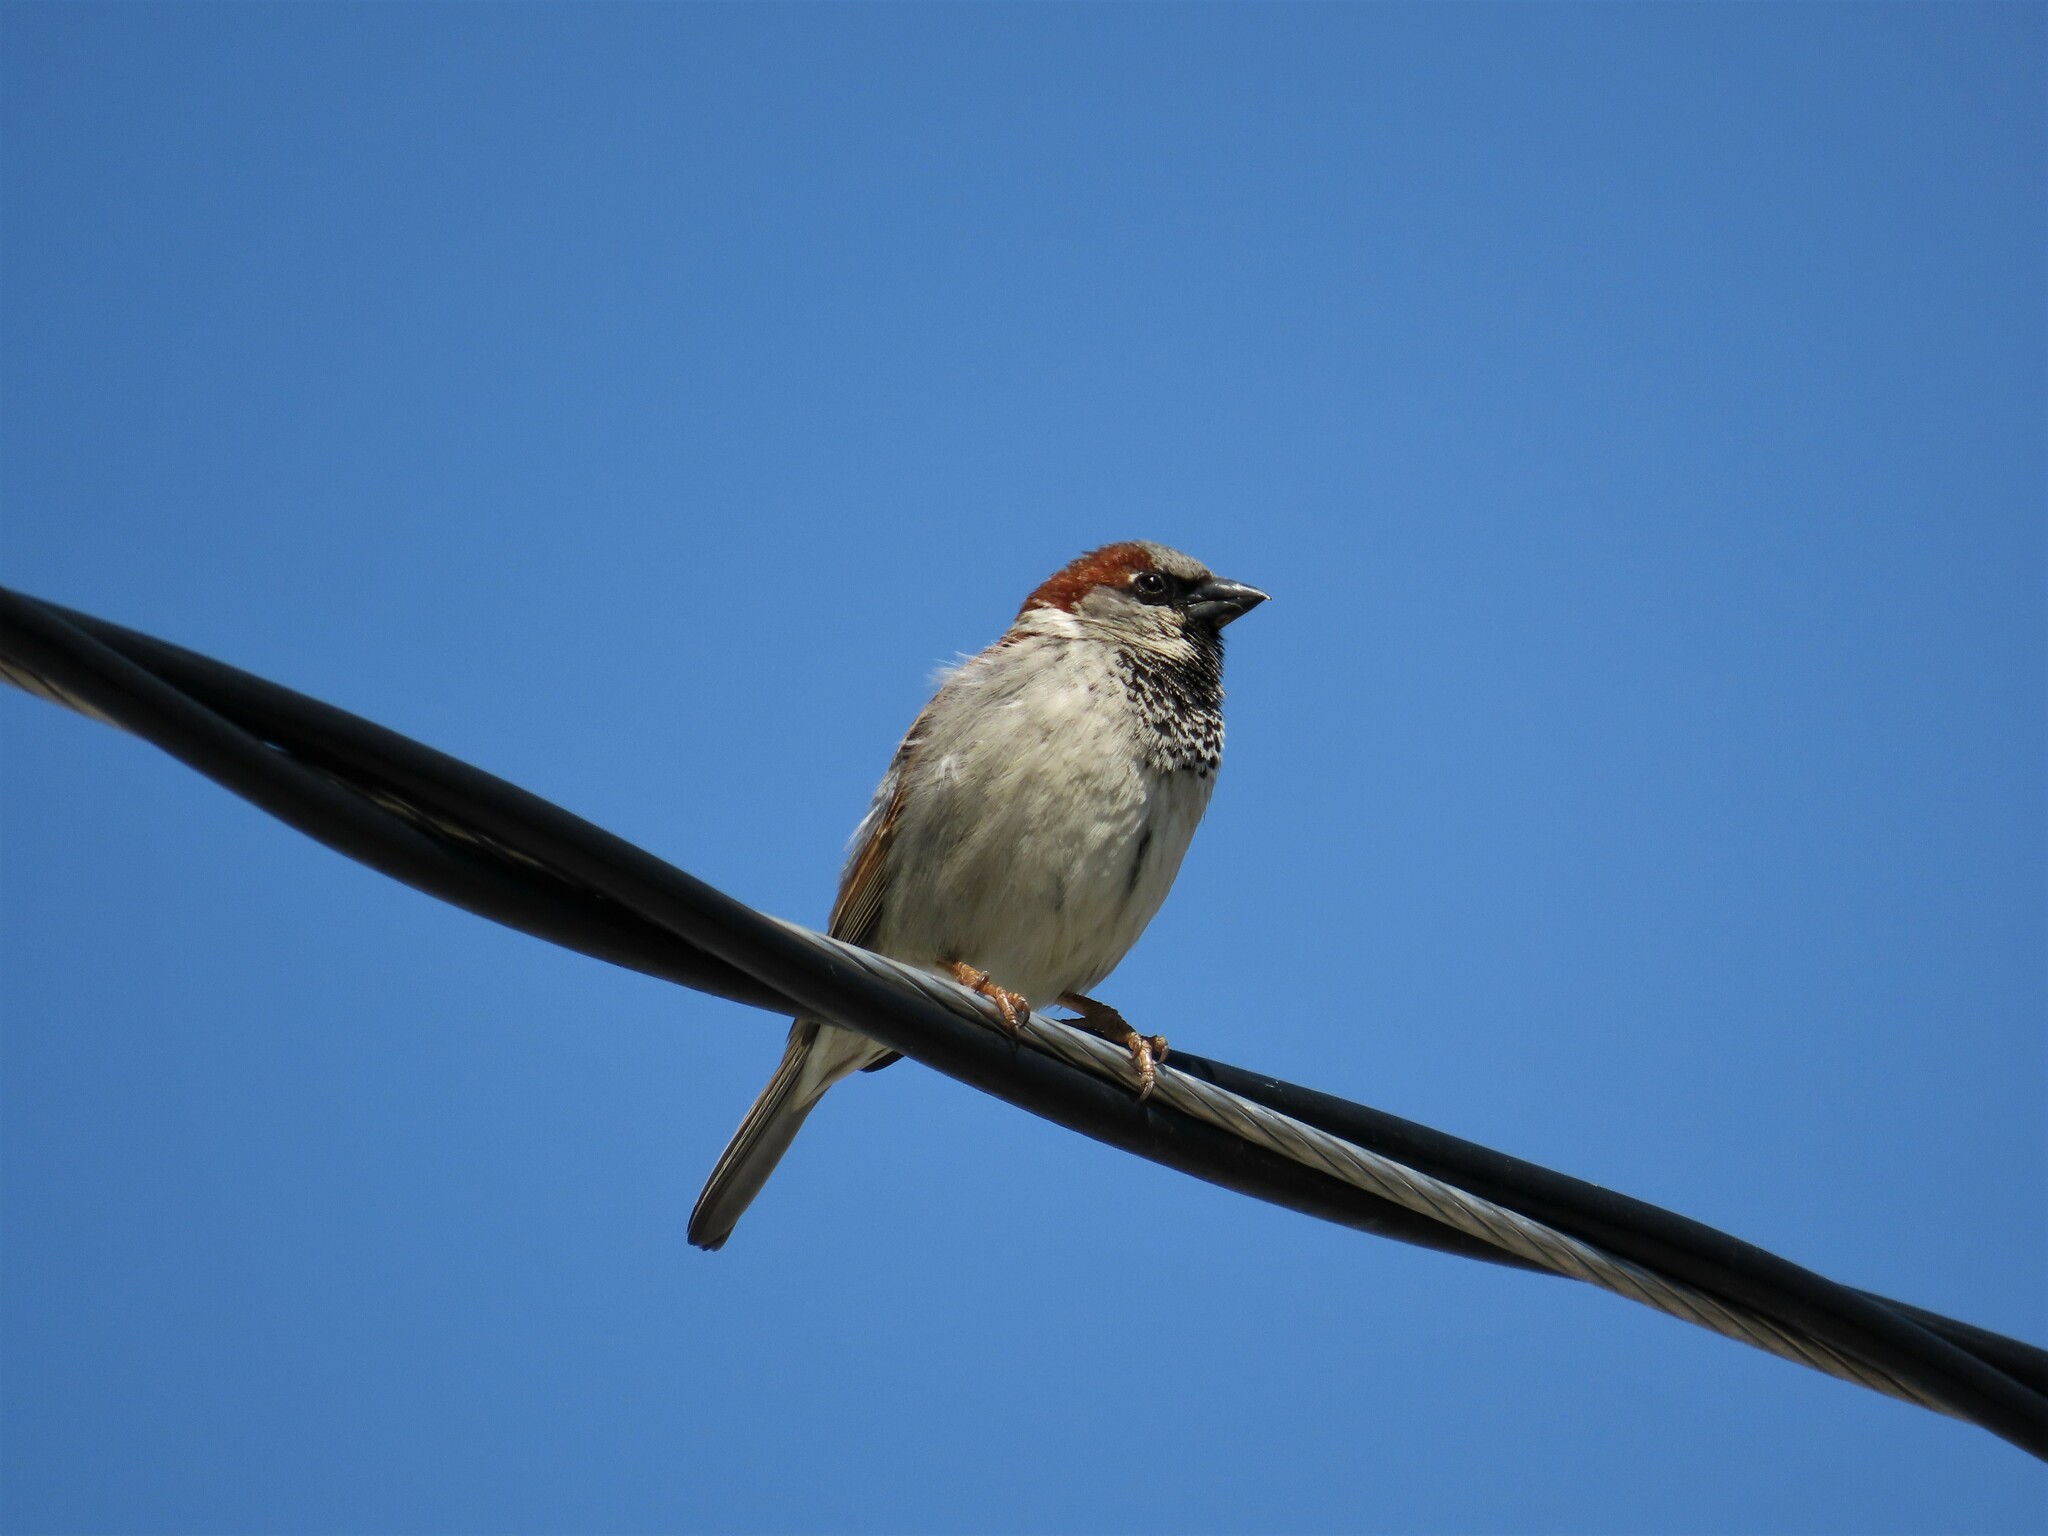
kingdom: Animalia
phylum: Chordata
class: Aves
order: Passeriformes
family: Passeridae
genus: Passer
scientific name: Passer domesticus
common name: House sparrow
